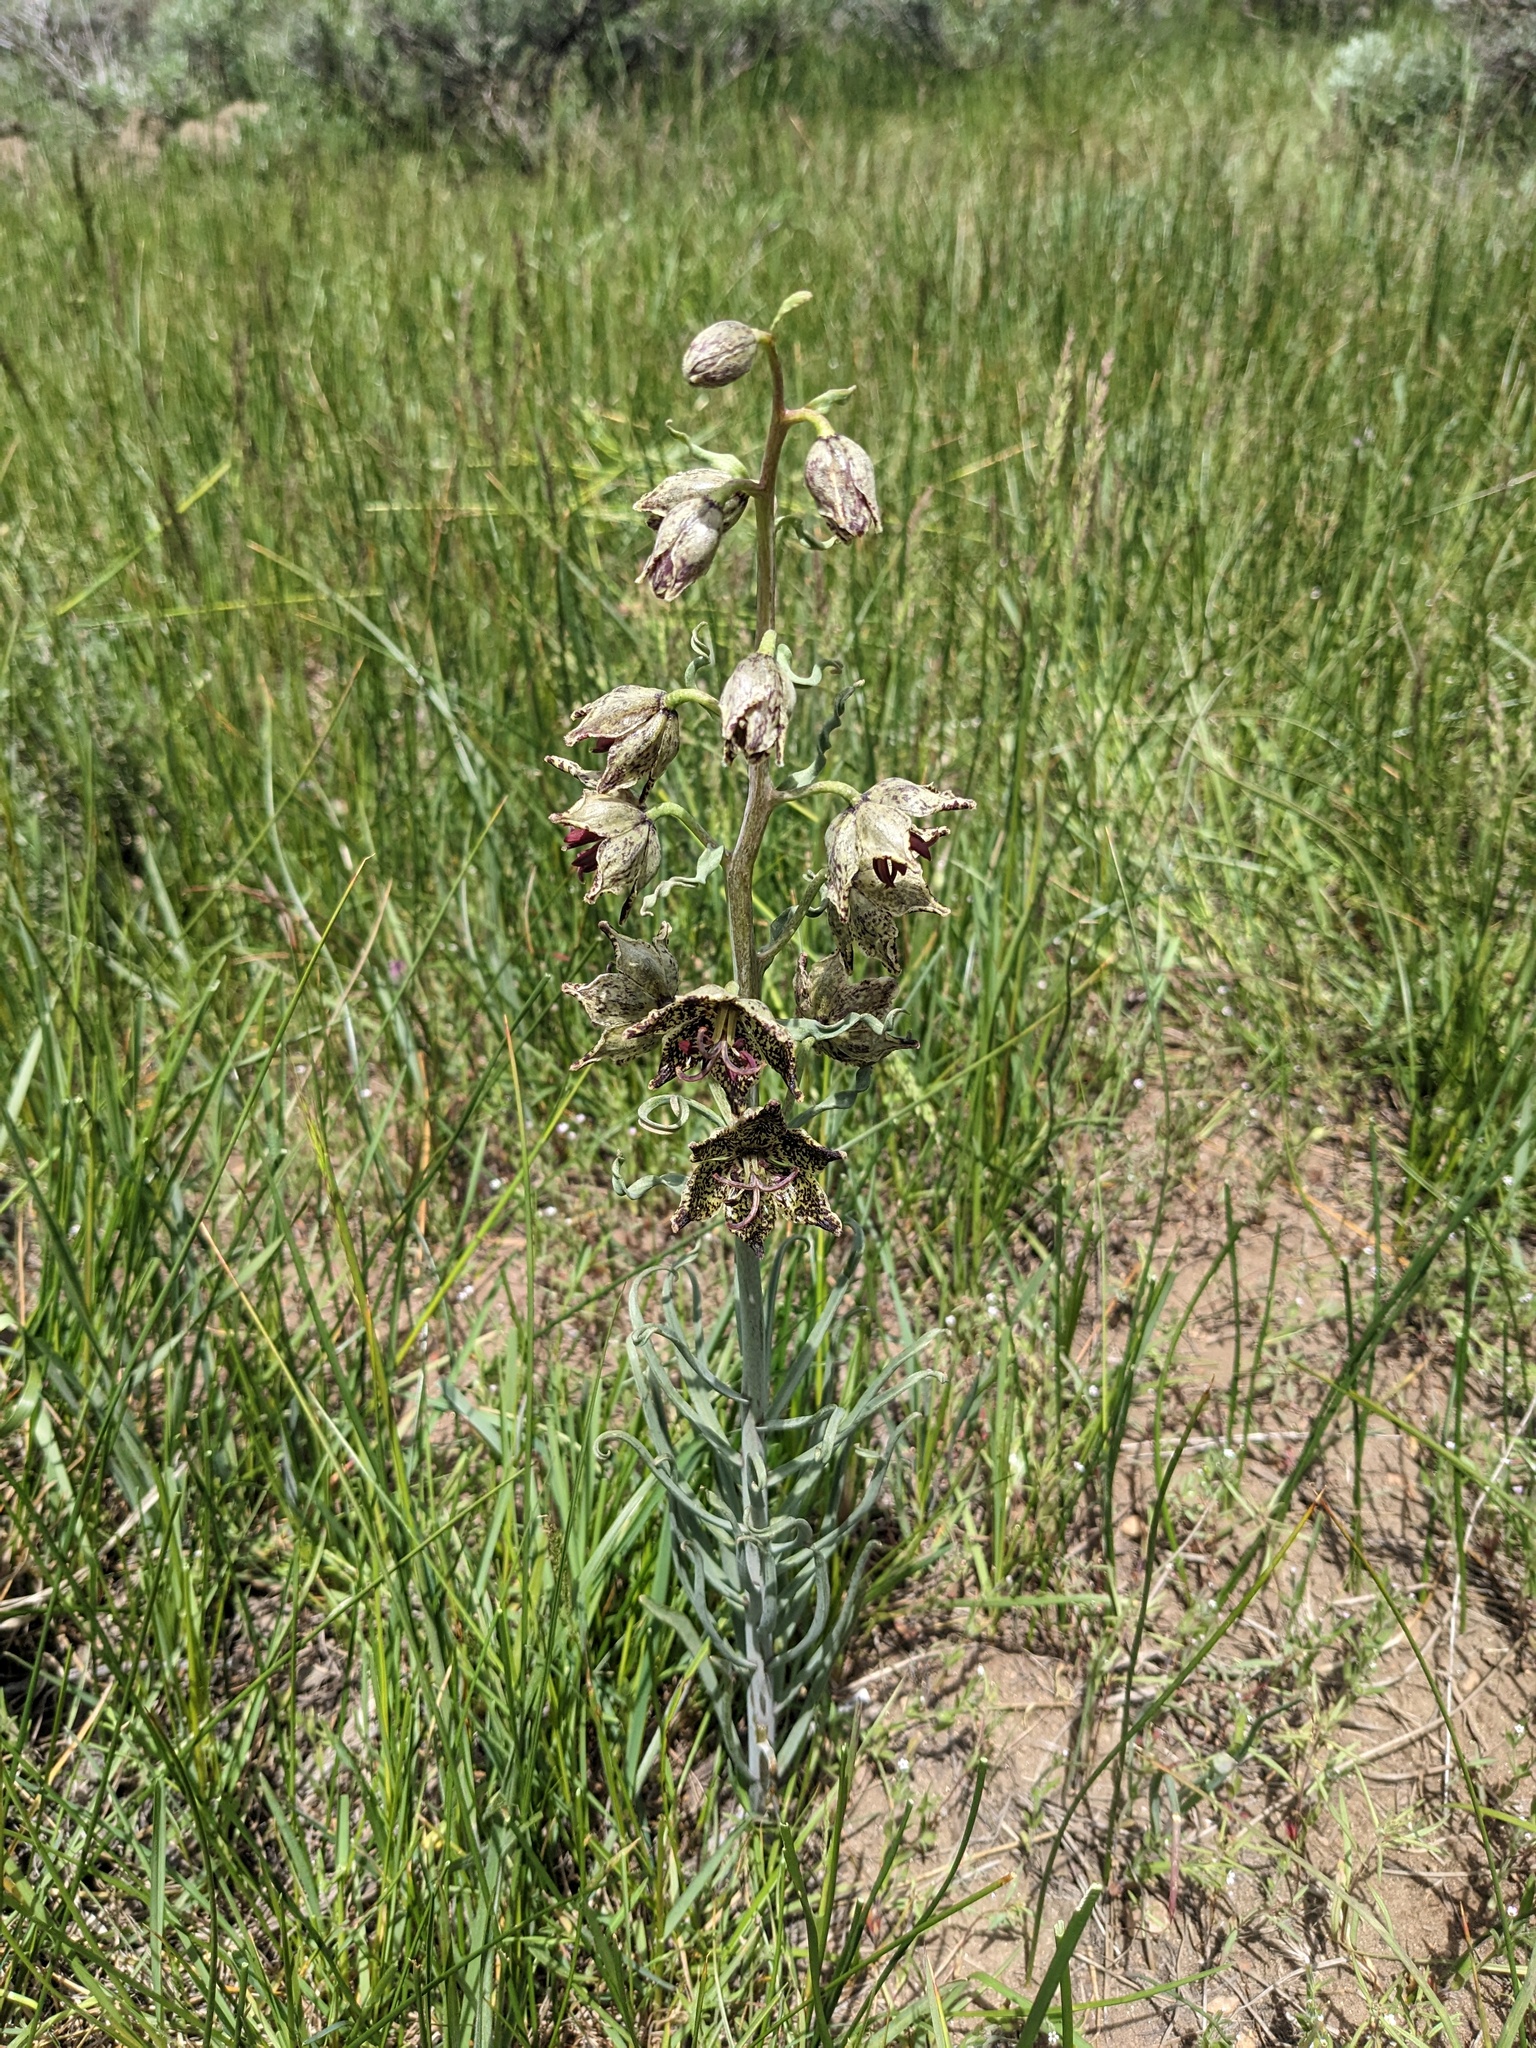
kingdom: Plantae
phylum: Tracheophyta
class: Liliopsida
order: Liliales
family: Liliaceae
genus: Fritillaria
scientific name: Fritillaria pinetorum
